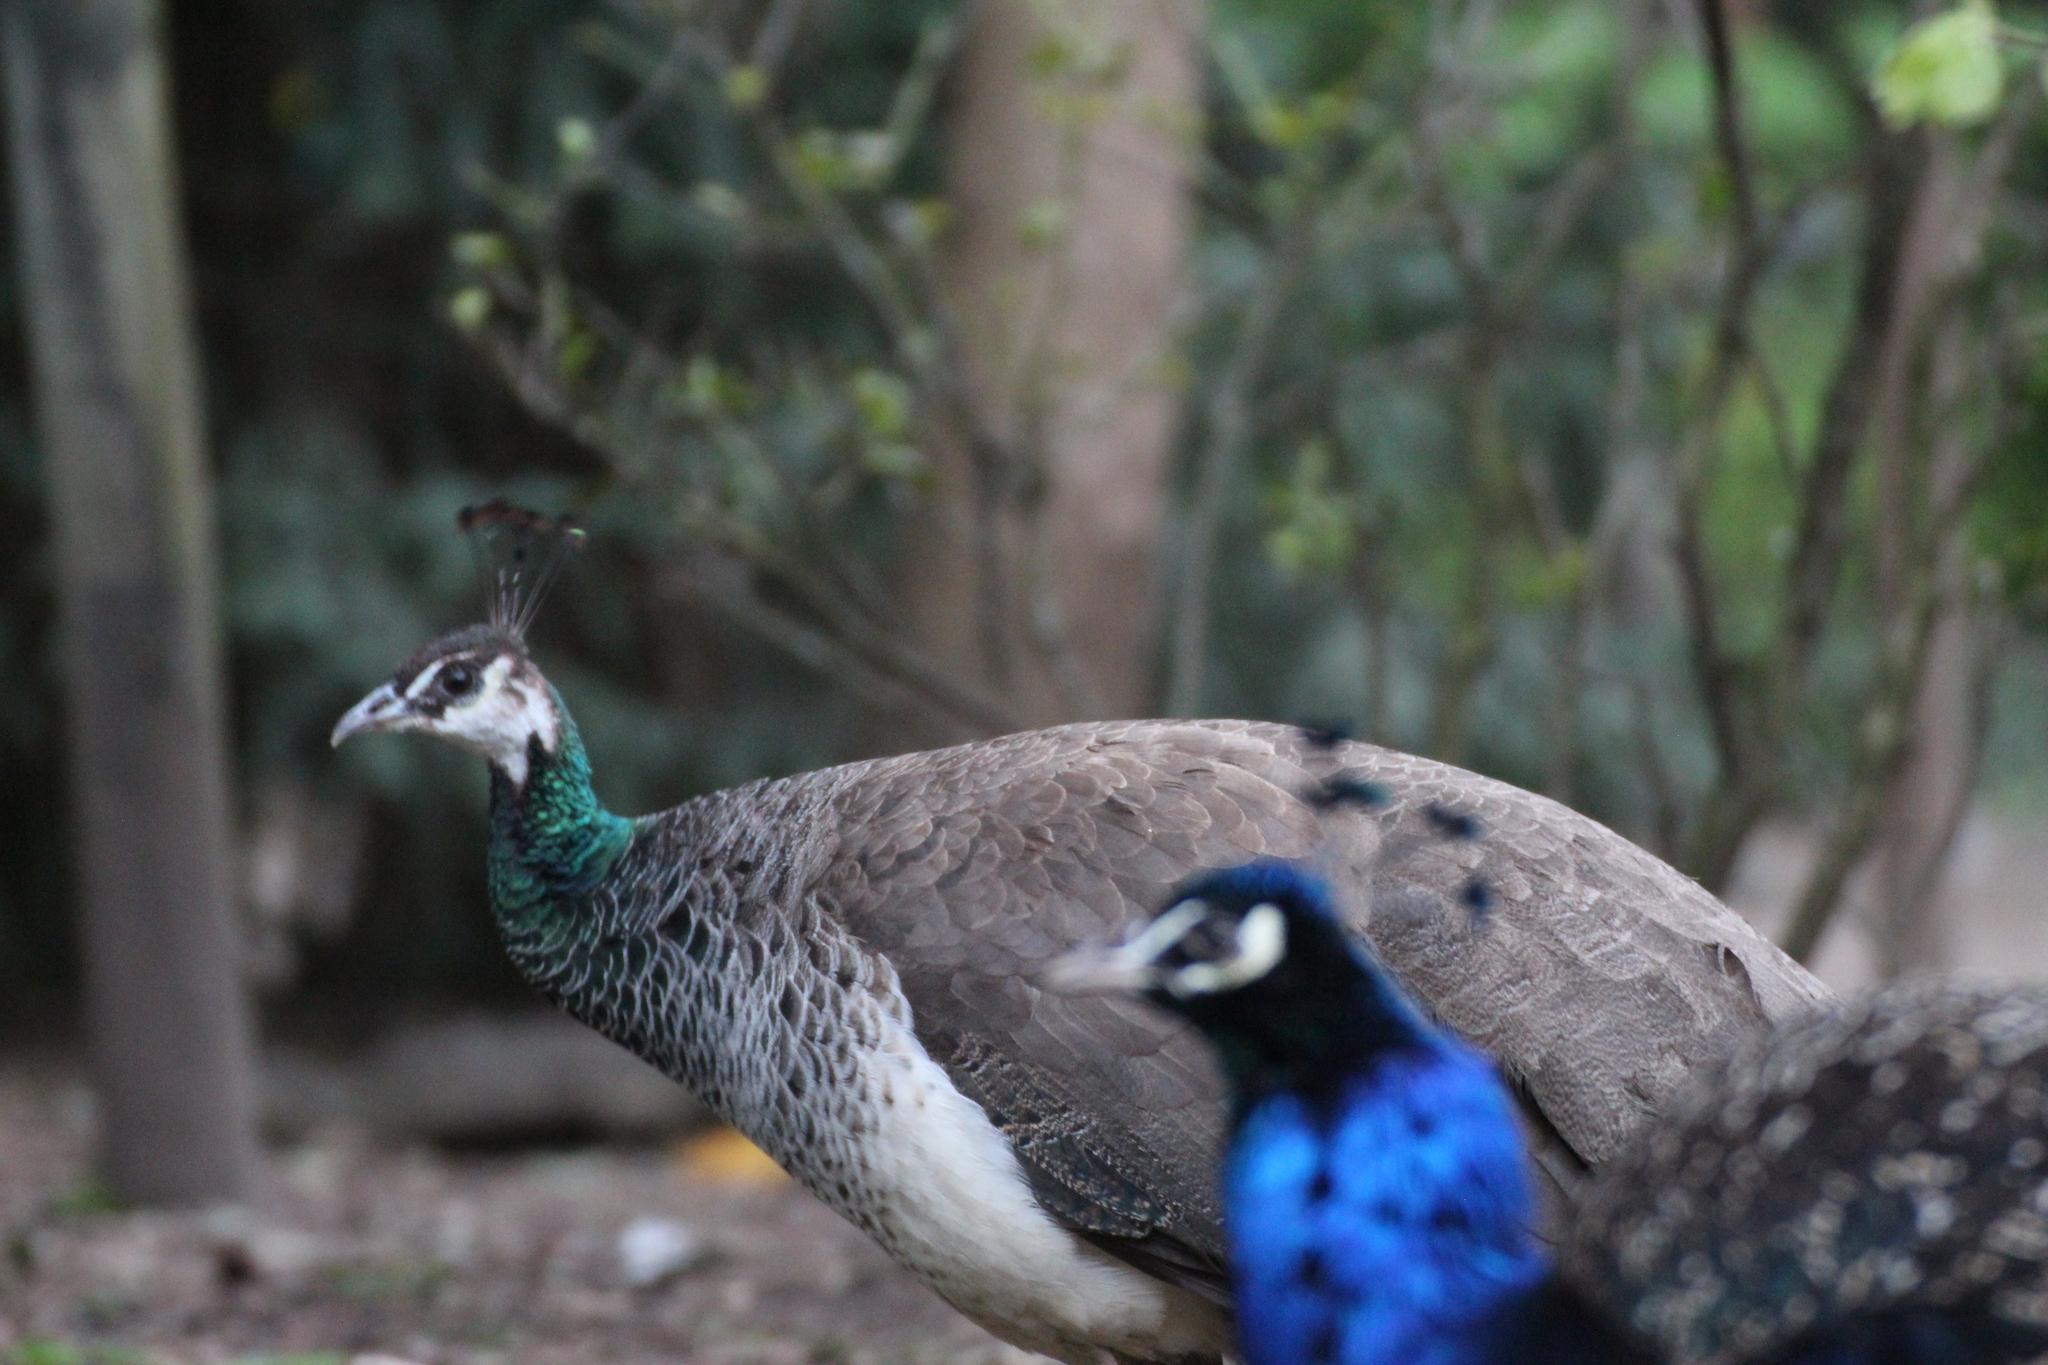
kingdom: Animalia
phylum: Chordata
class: Aves
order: Galliformes
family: Phasianidae
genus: Pavo
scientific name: Pavo cristatus
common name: Indian peafowl
